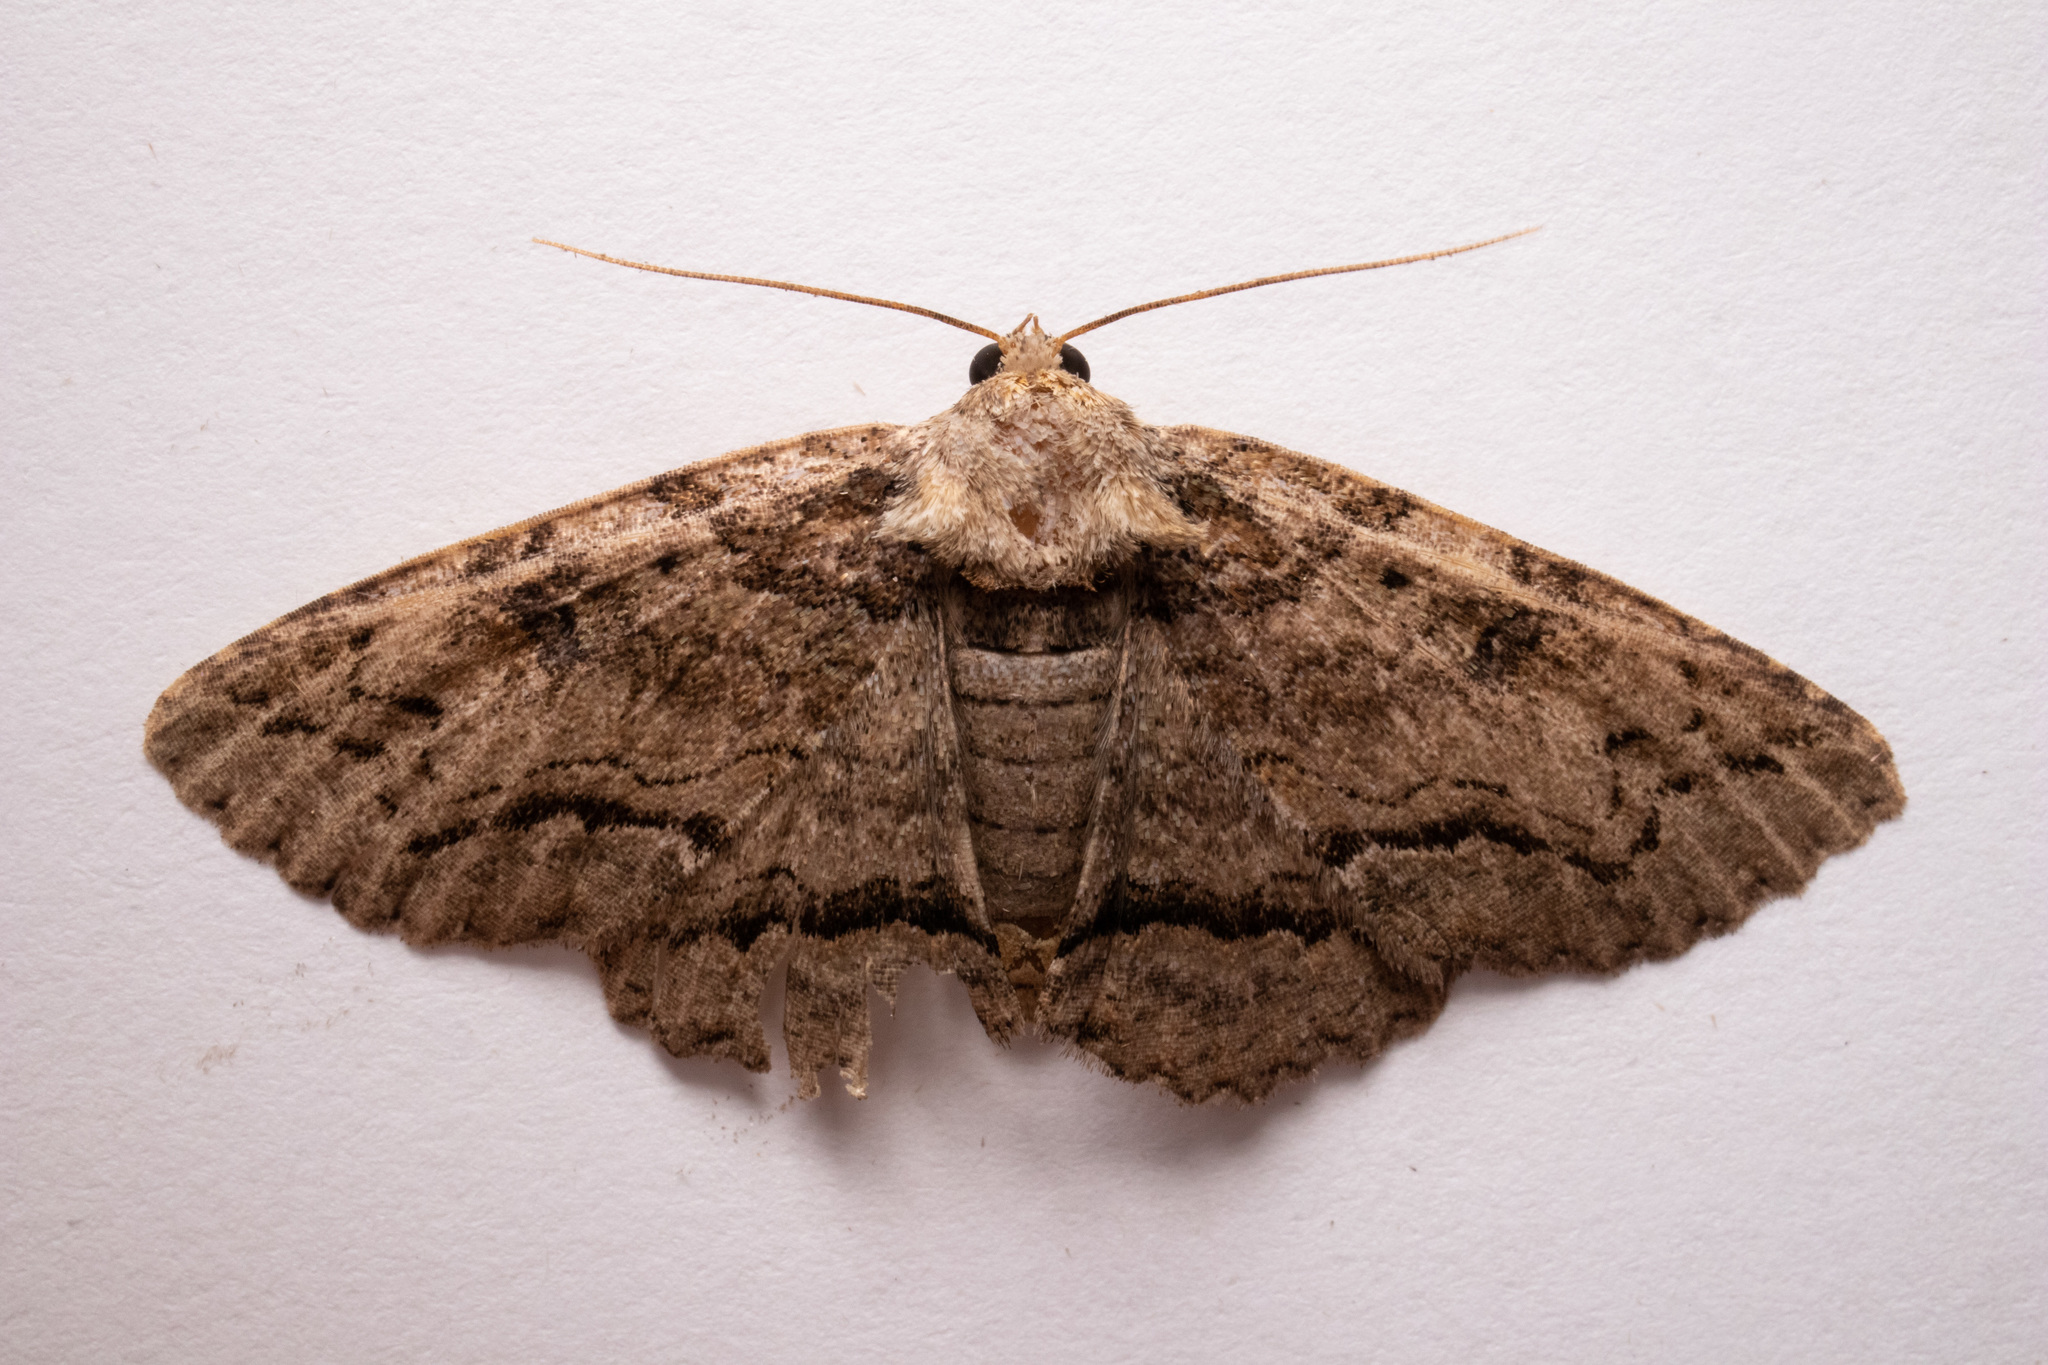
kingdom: Animalia
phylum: Arthropoda
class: Insecta
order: Lepidoptera
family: Erebidae
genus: Zale
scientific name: Zale galbanata
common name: Maple zale
